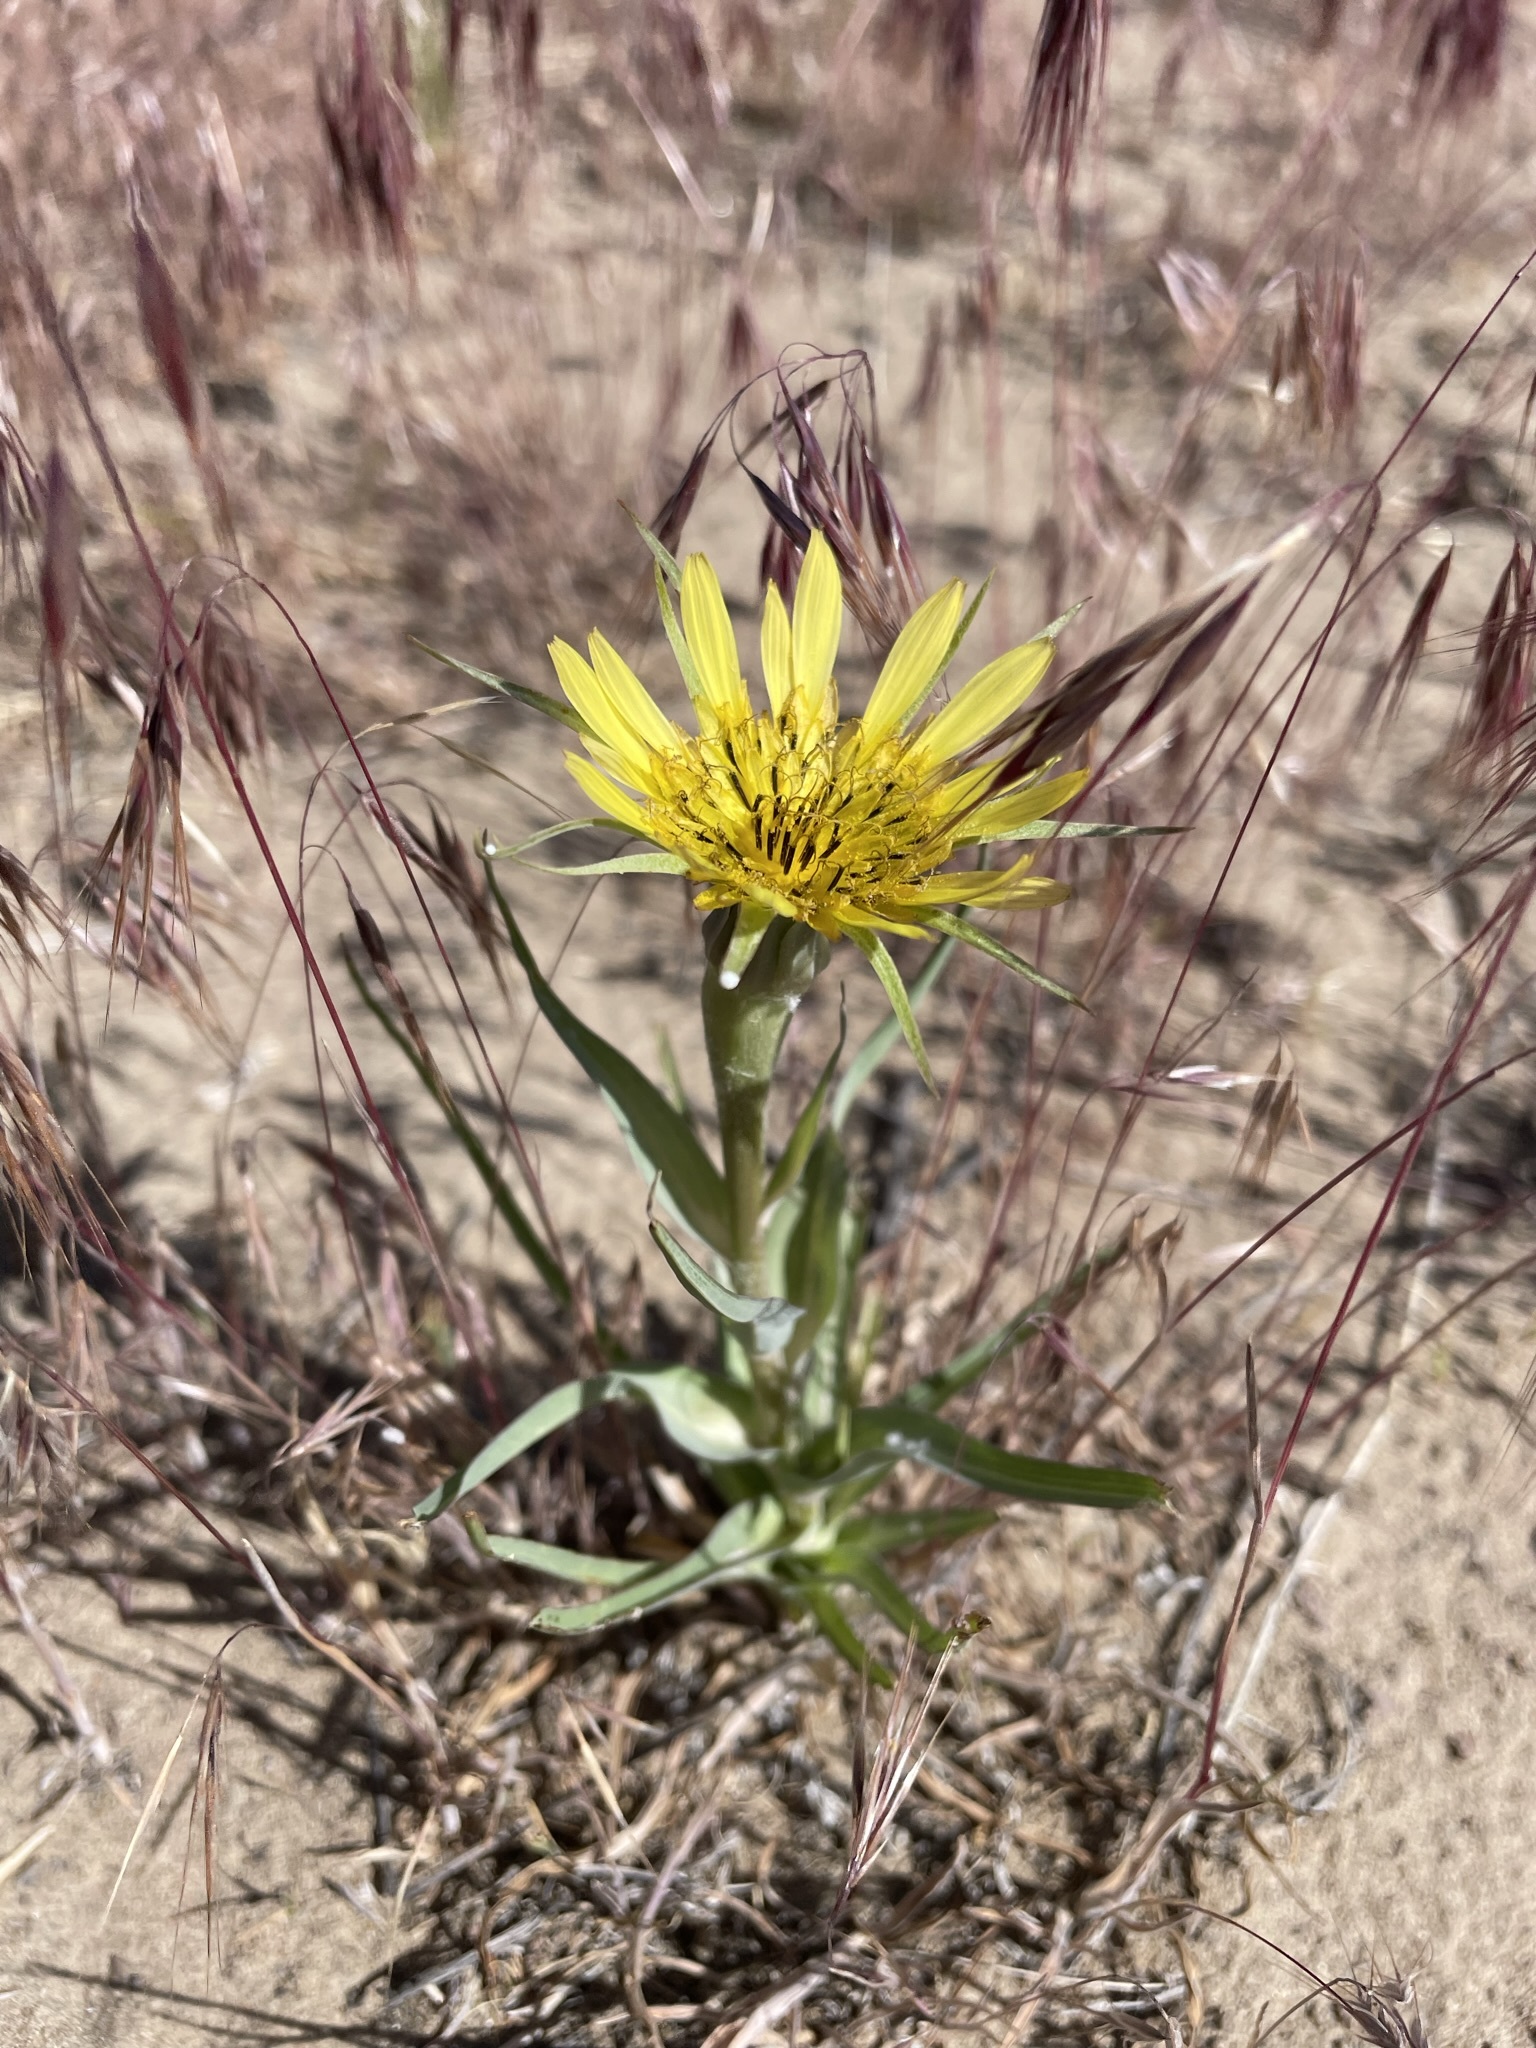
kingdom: Plantae
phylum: Tracheophyta
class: Magnoliopsida
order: Asterales
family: Asteraceae
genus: Tragopogon
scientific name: Tragopogon dubius
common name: Yellow salsify
